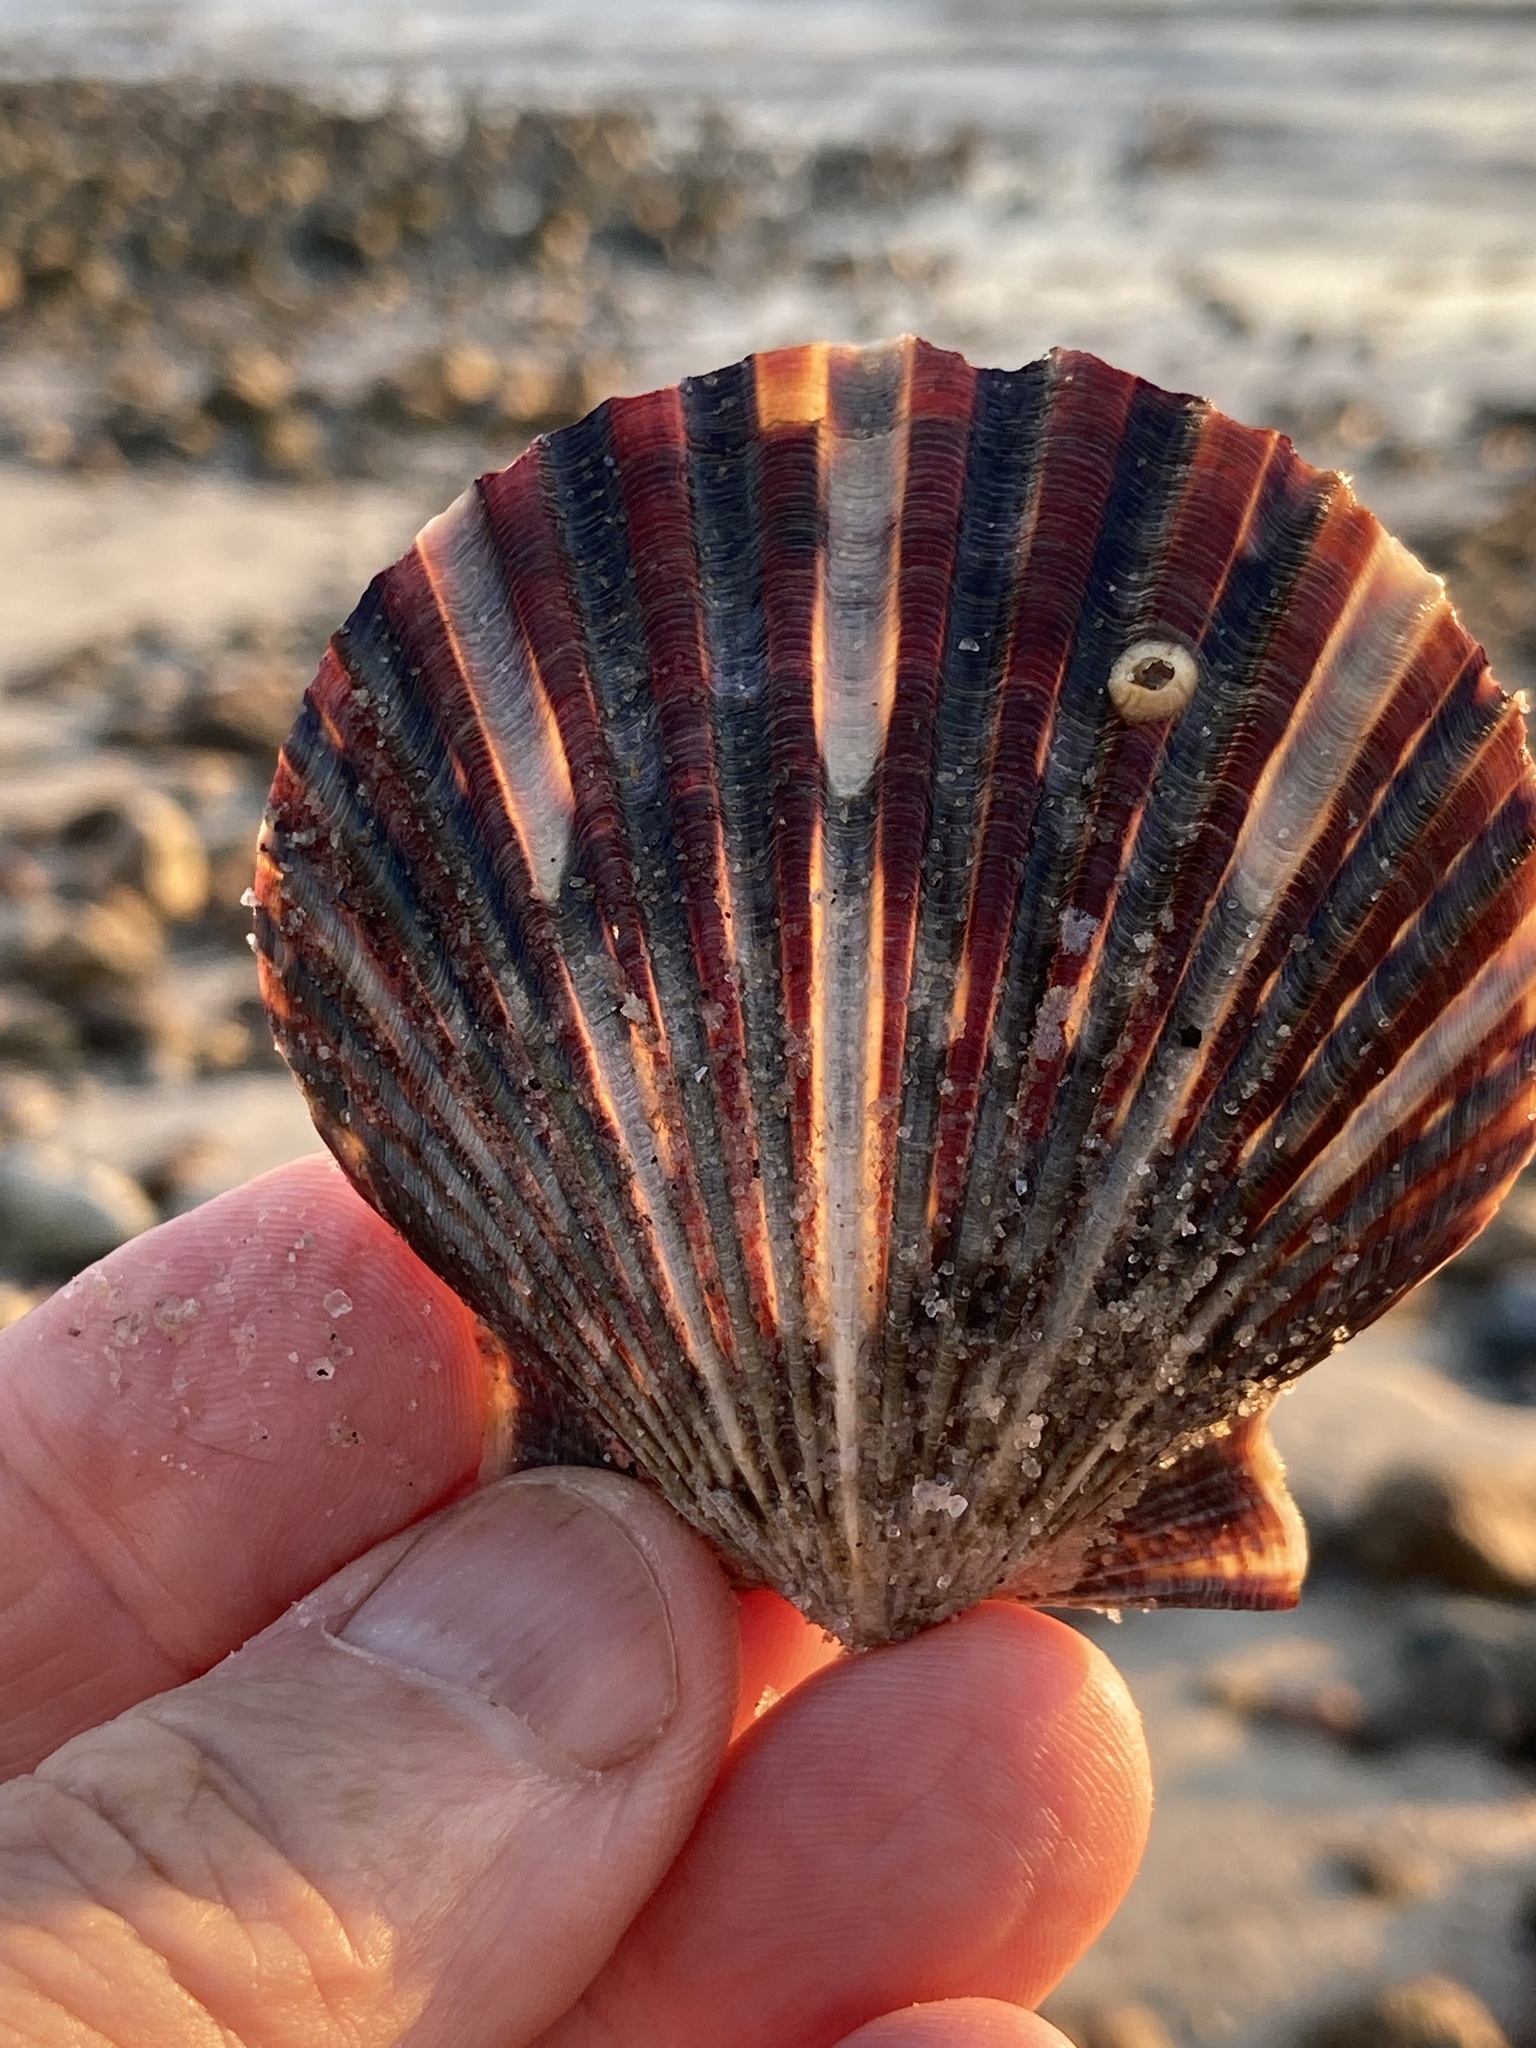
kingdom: Animalia
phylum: Mollusca
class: Bivalvia
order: Pectinida
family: Pectinidae
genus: Argopecten
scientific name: Argopecten irradians
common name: Atlantic bay scallop
